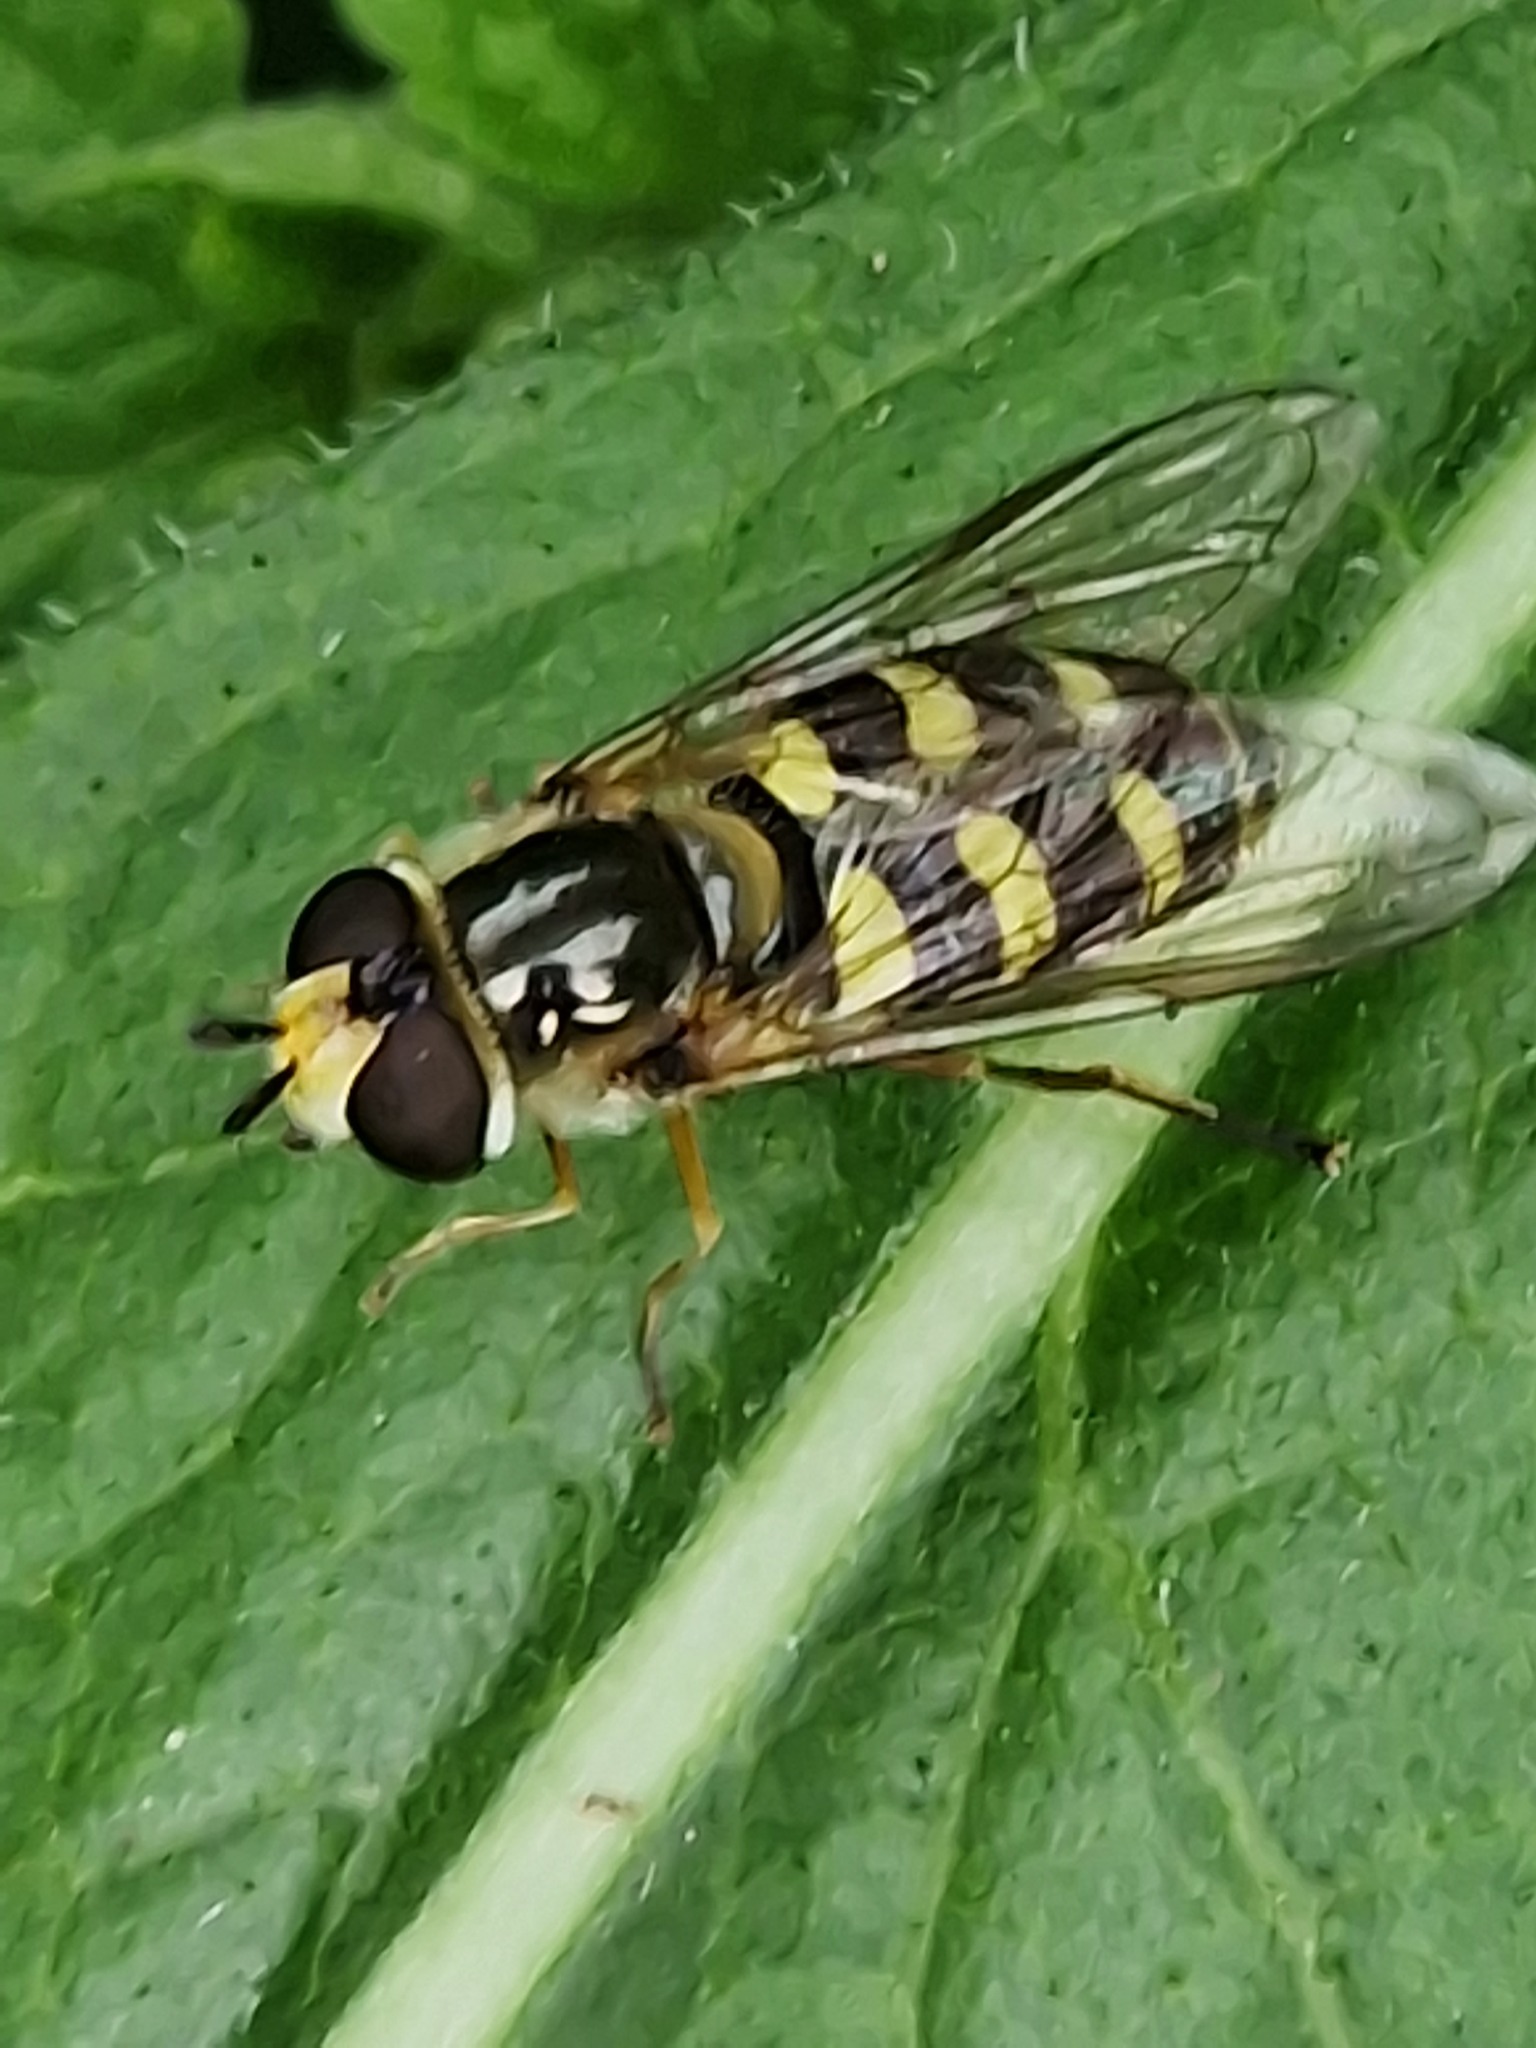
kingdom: Animalia
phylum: Arthropoda
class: Insecta
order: Diptera
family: Syrphidae
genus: Eupeodes
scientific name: Eupeodes
